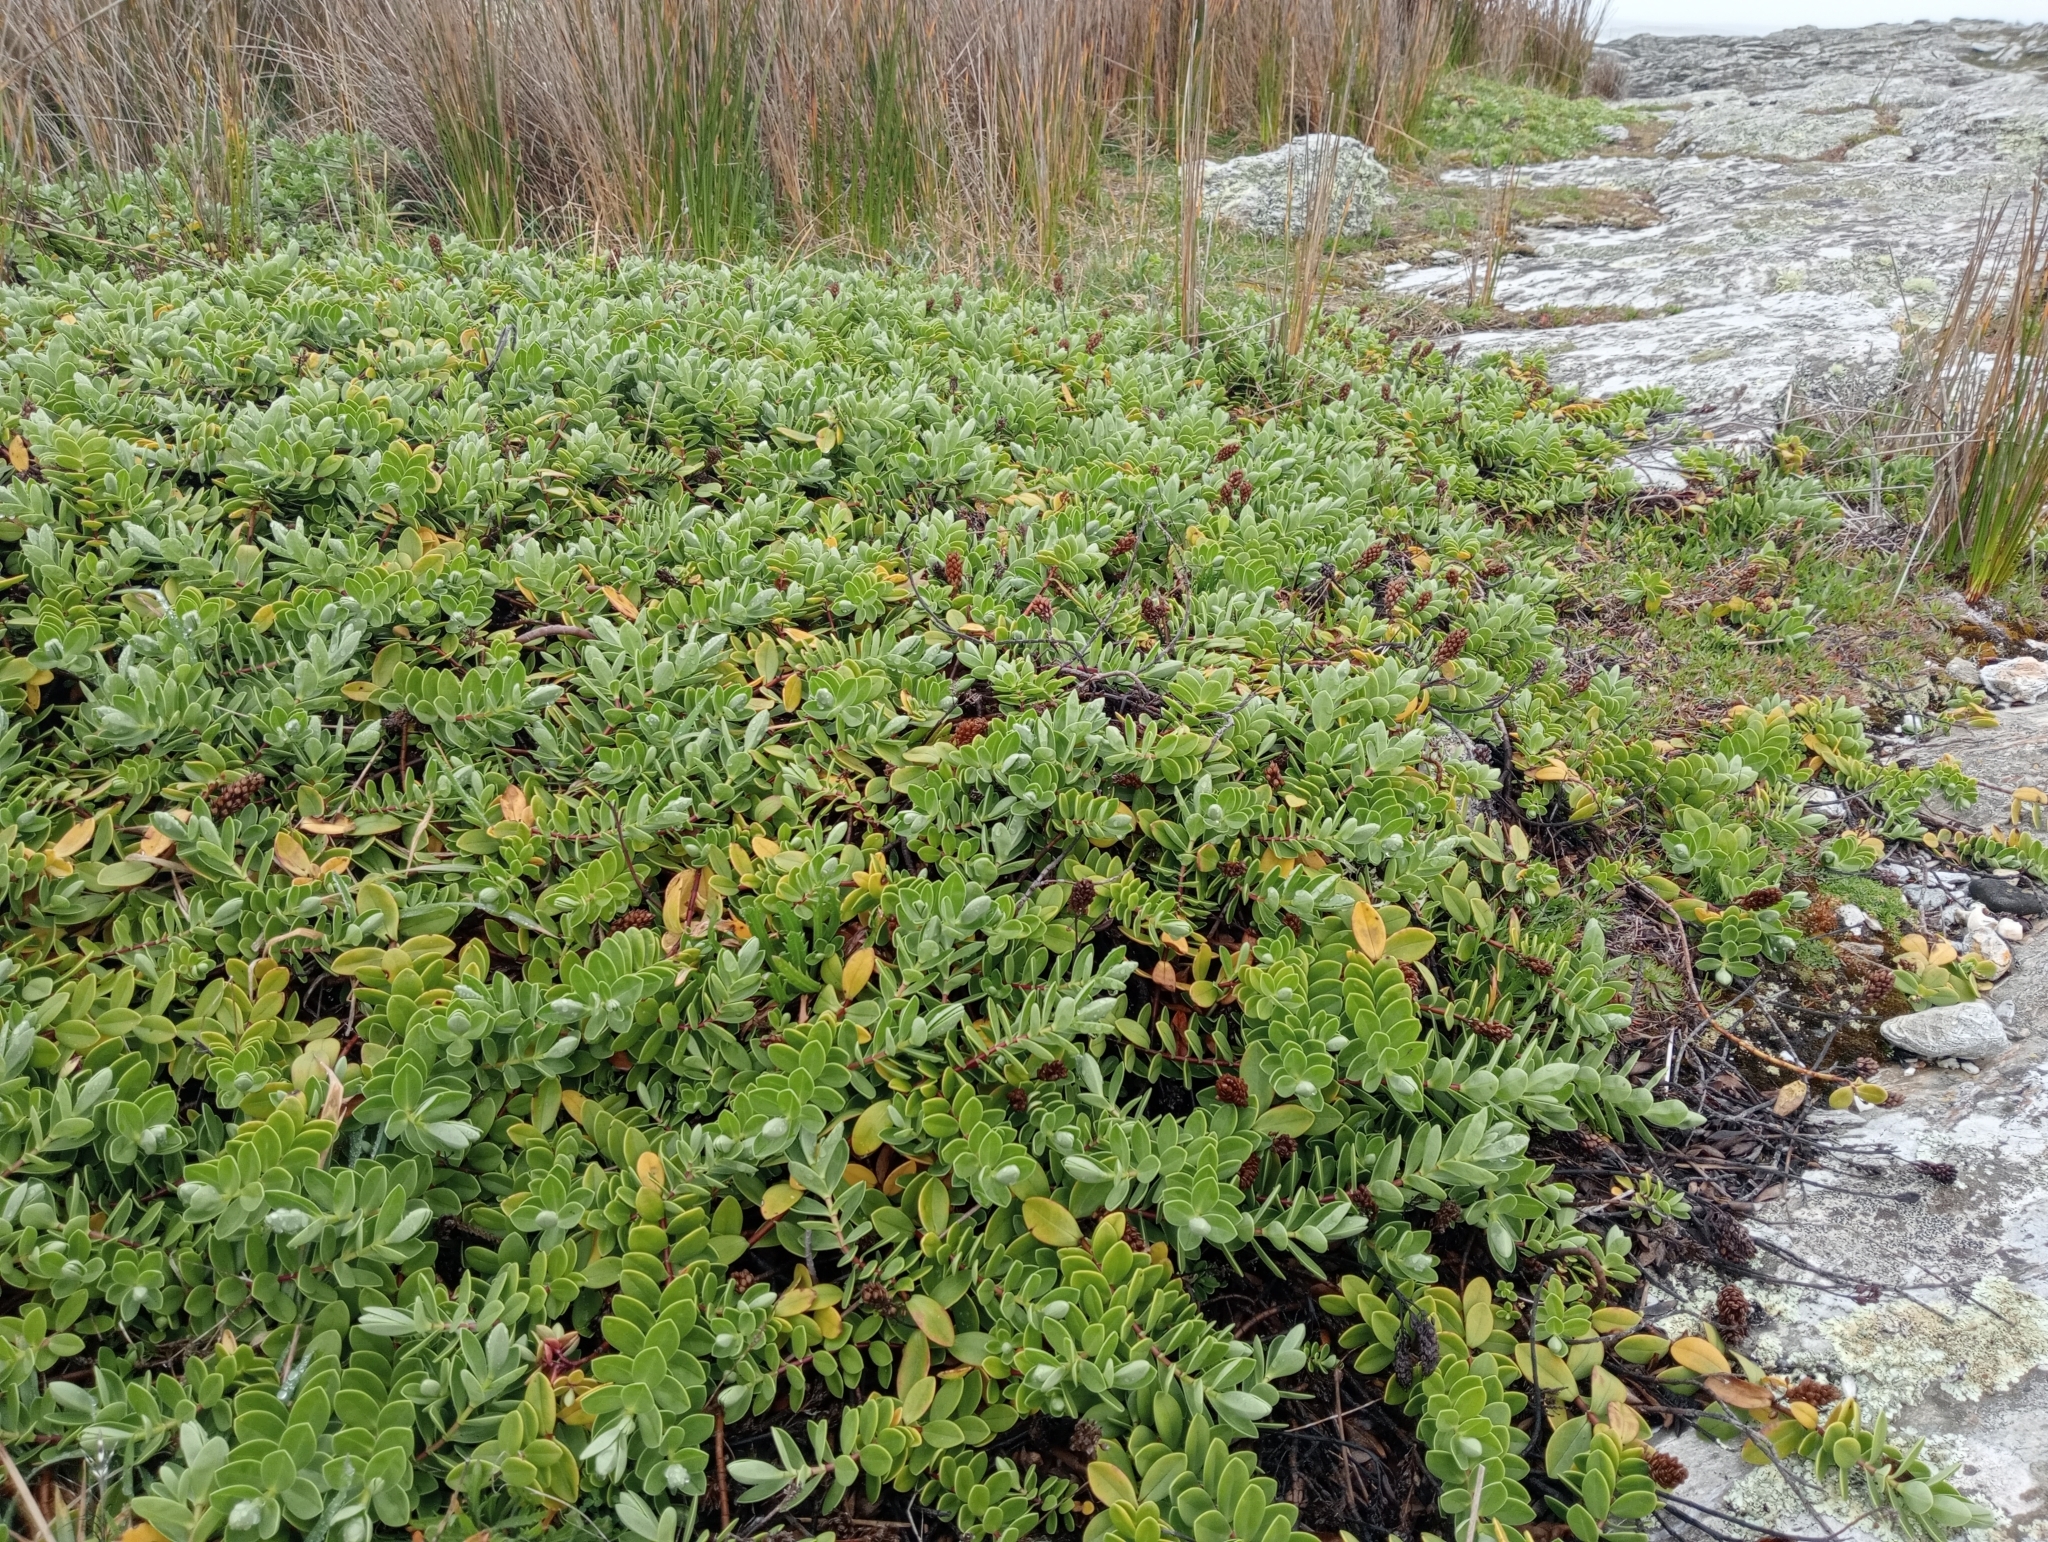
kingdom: Plantae
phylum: Tracheophyta
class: Magnoliopsida
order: Lamiales
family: Plantaginaceae
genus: Veronica
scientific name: Veronica chathamica
